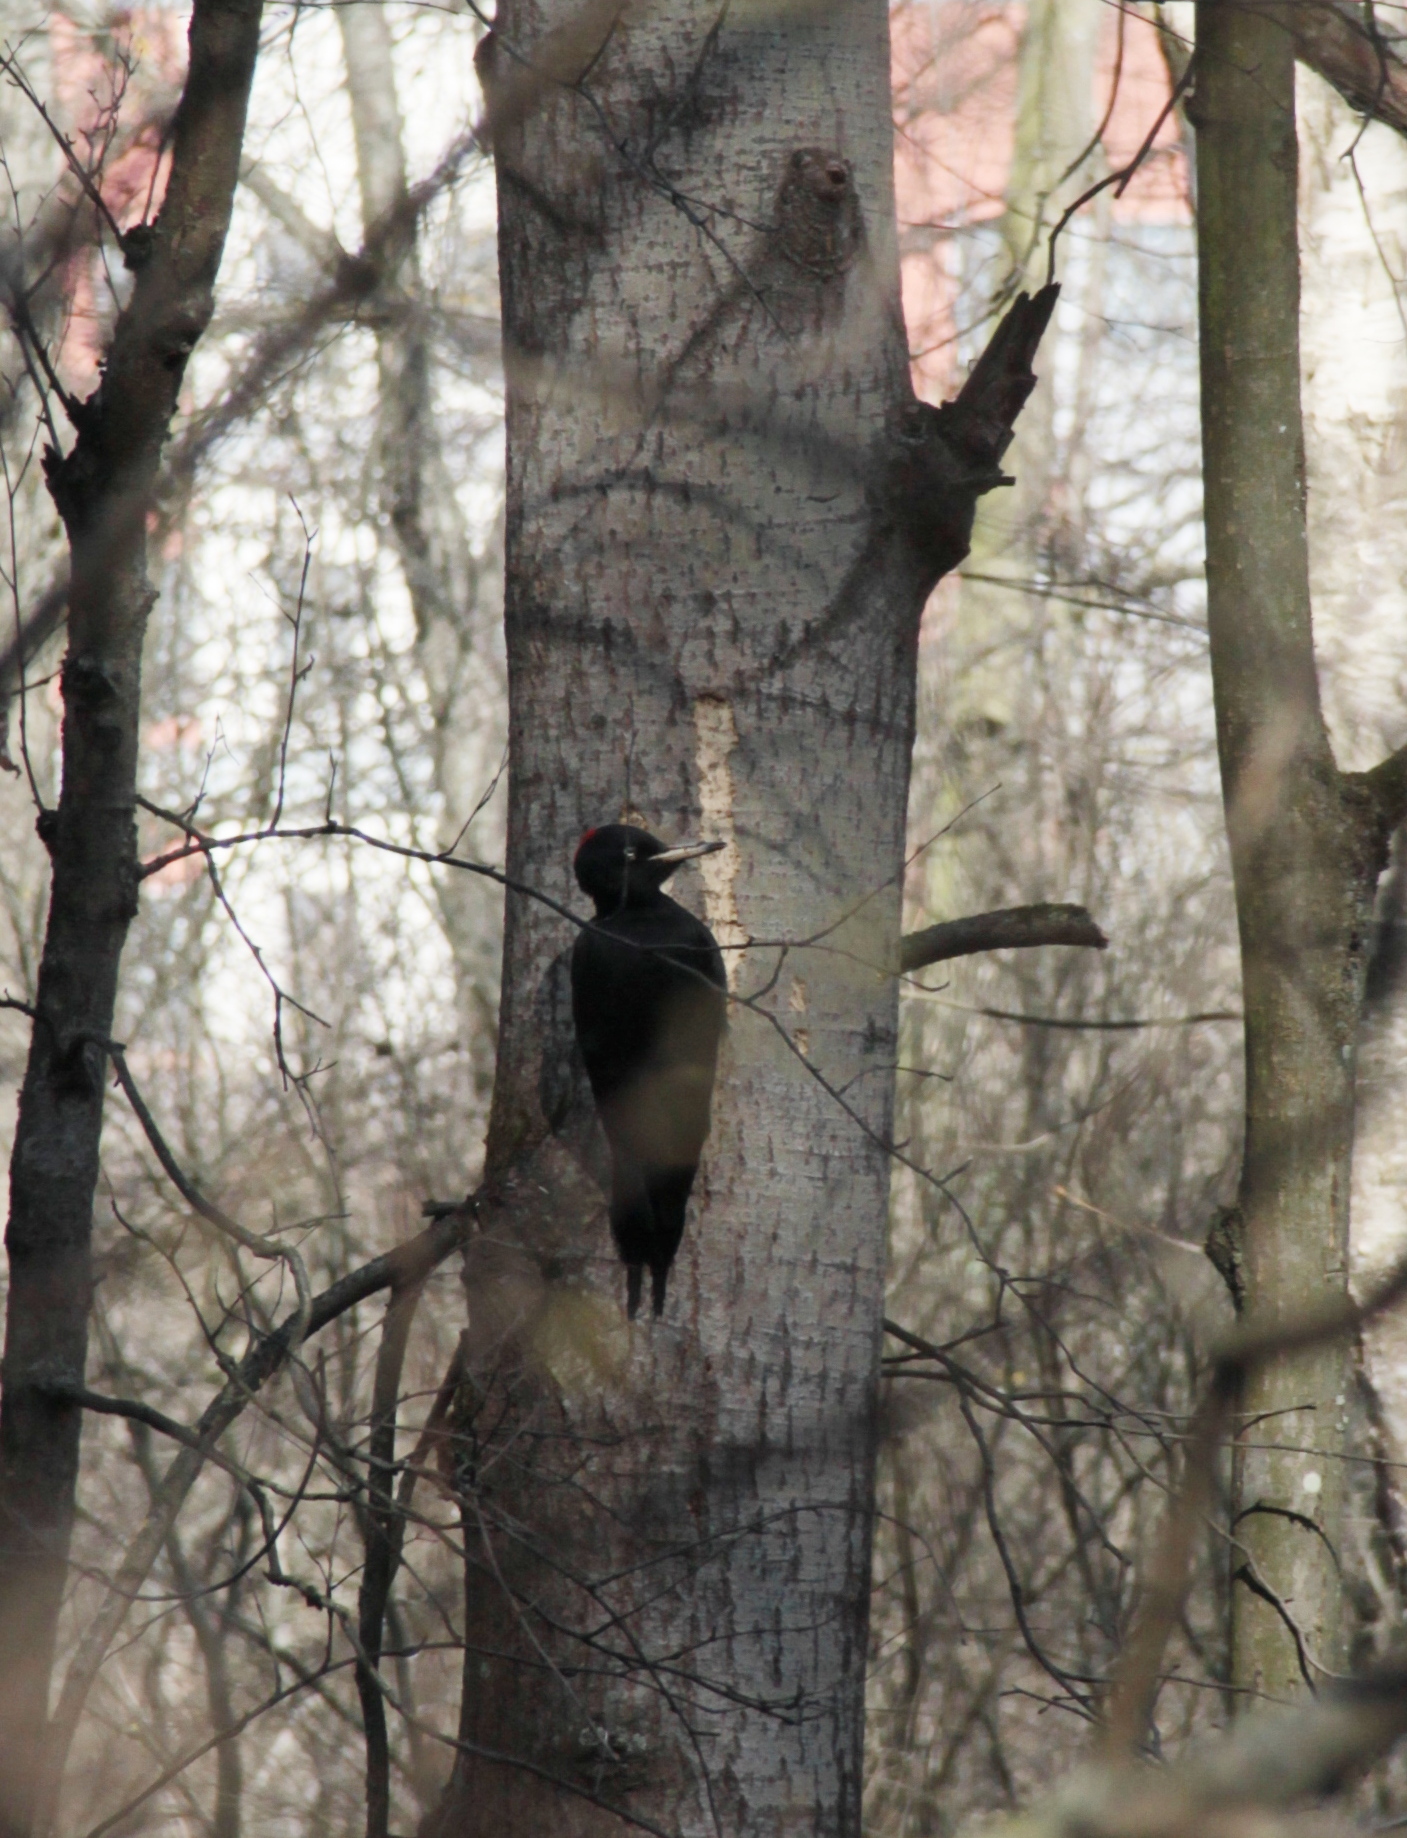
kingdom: Animalia
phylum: Chordata
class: Aves
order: Piciformes
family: Picidae
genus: Dryocopus
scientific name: Dryocopus martius
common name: Black woodpecker
